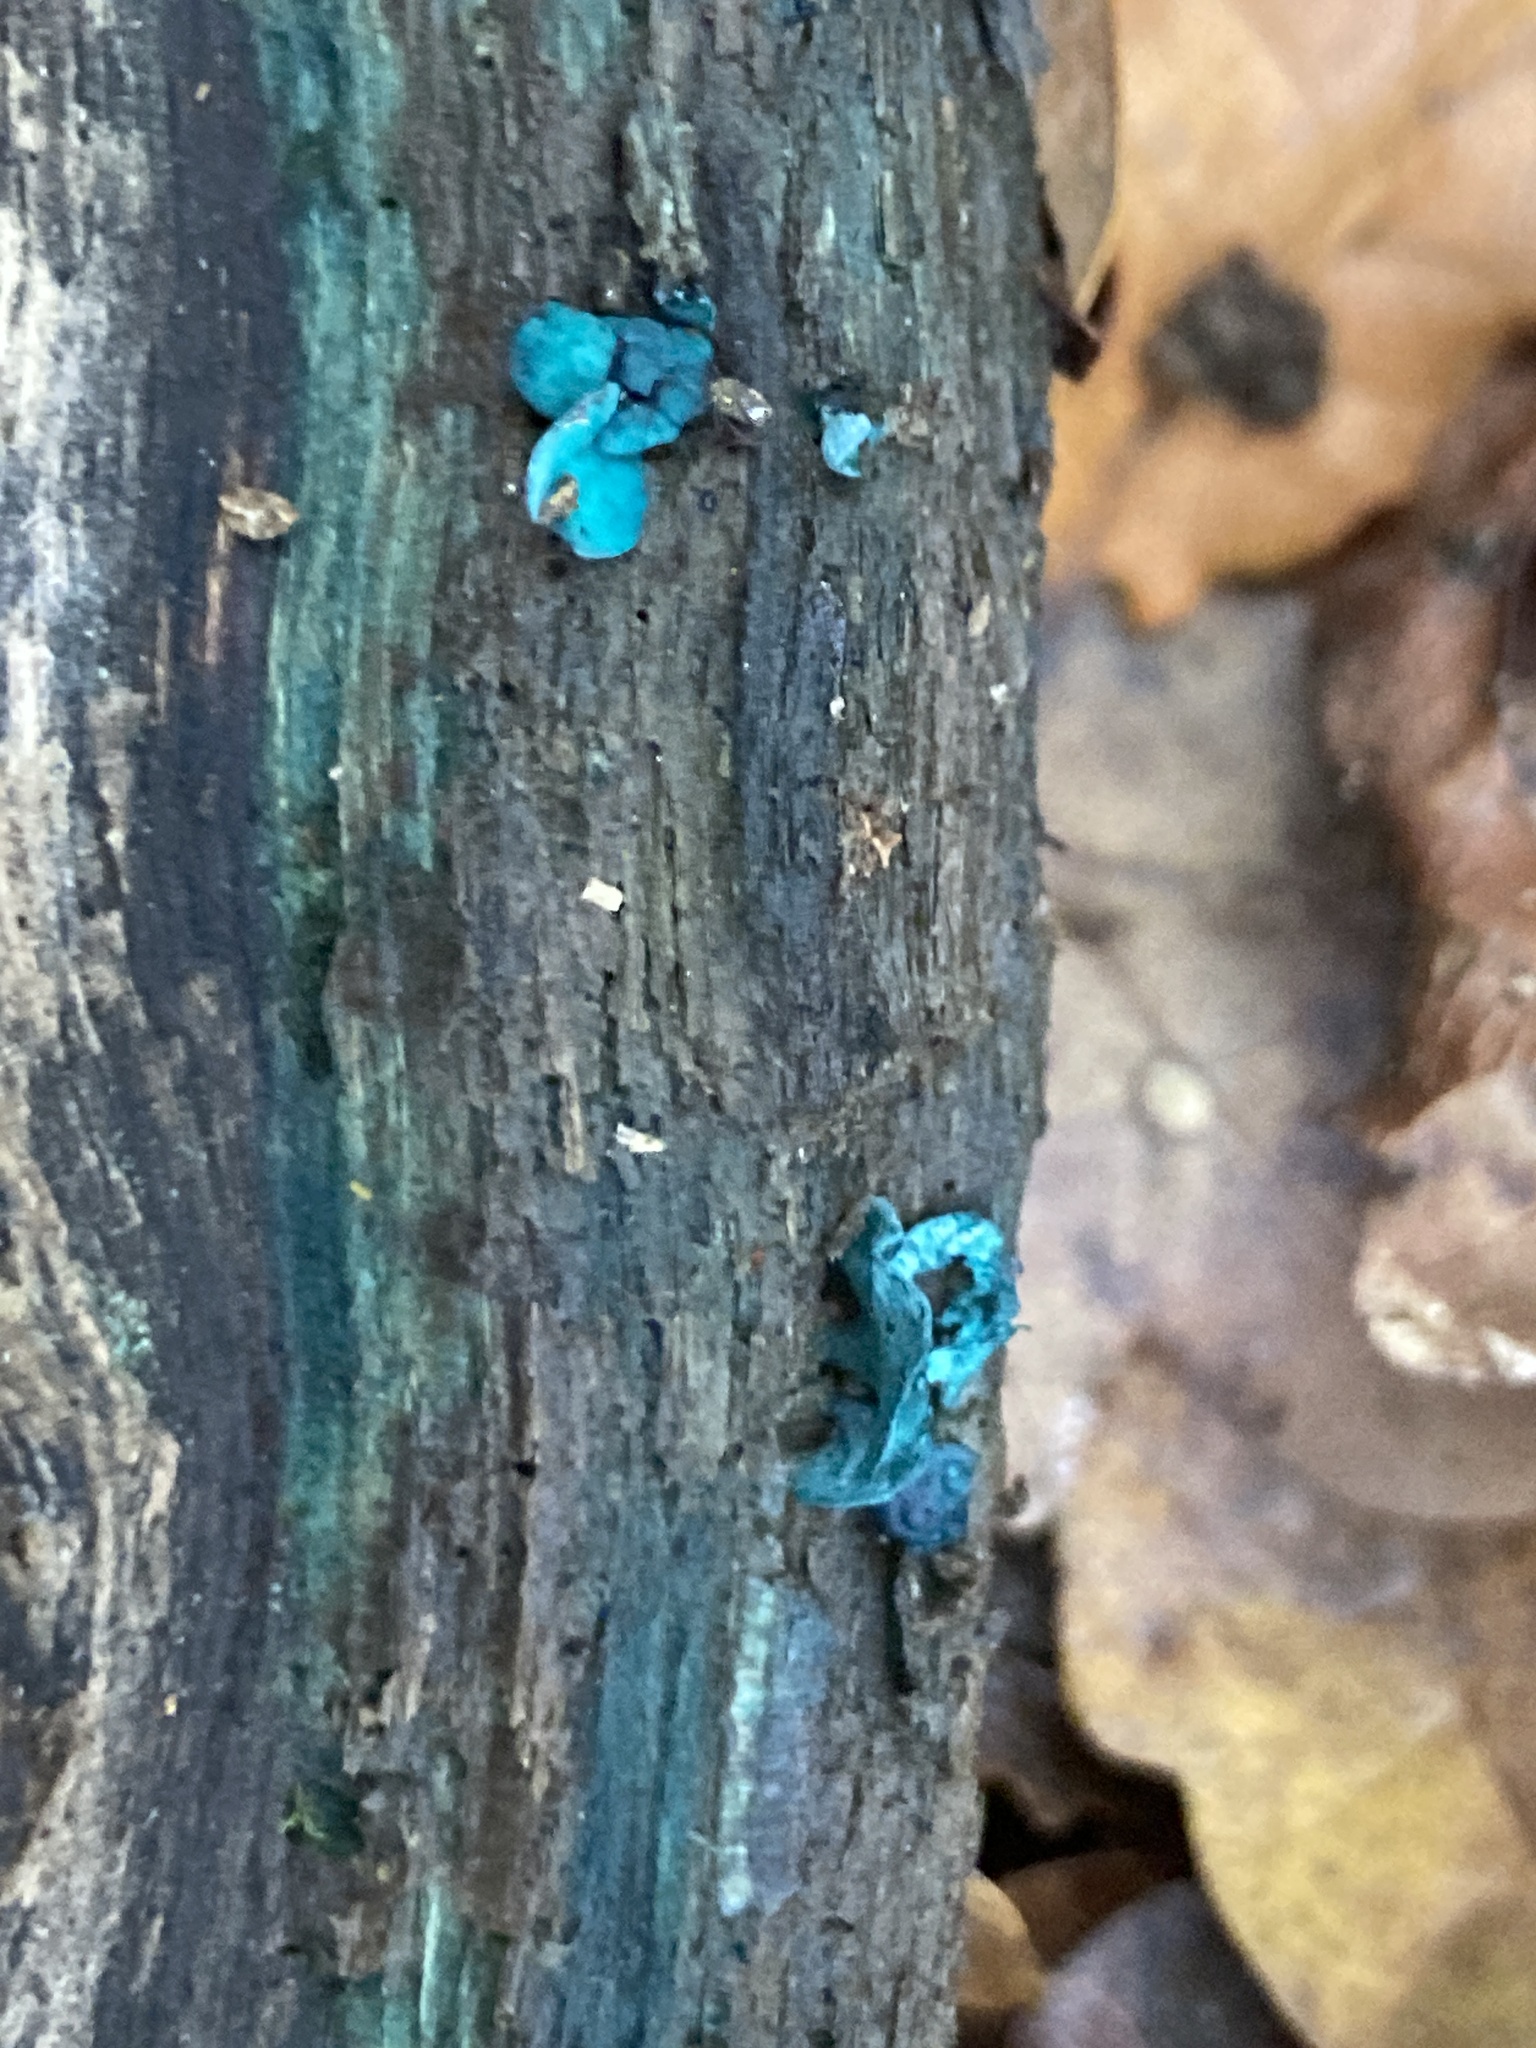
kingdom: Fungi
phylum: Ascomycota
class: Leotiomycetes
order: Helotiales
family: Chlorociboriaceae
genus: Chlorociboria
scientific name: Chlorociboria aeruginascens
